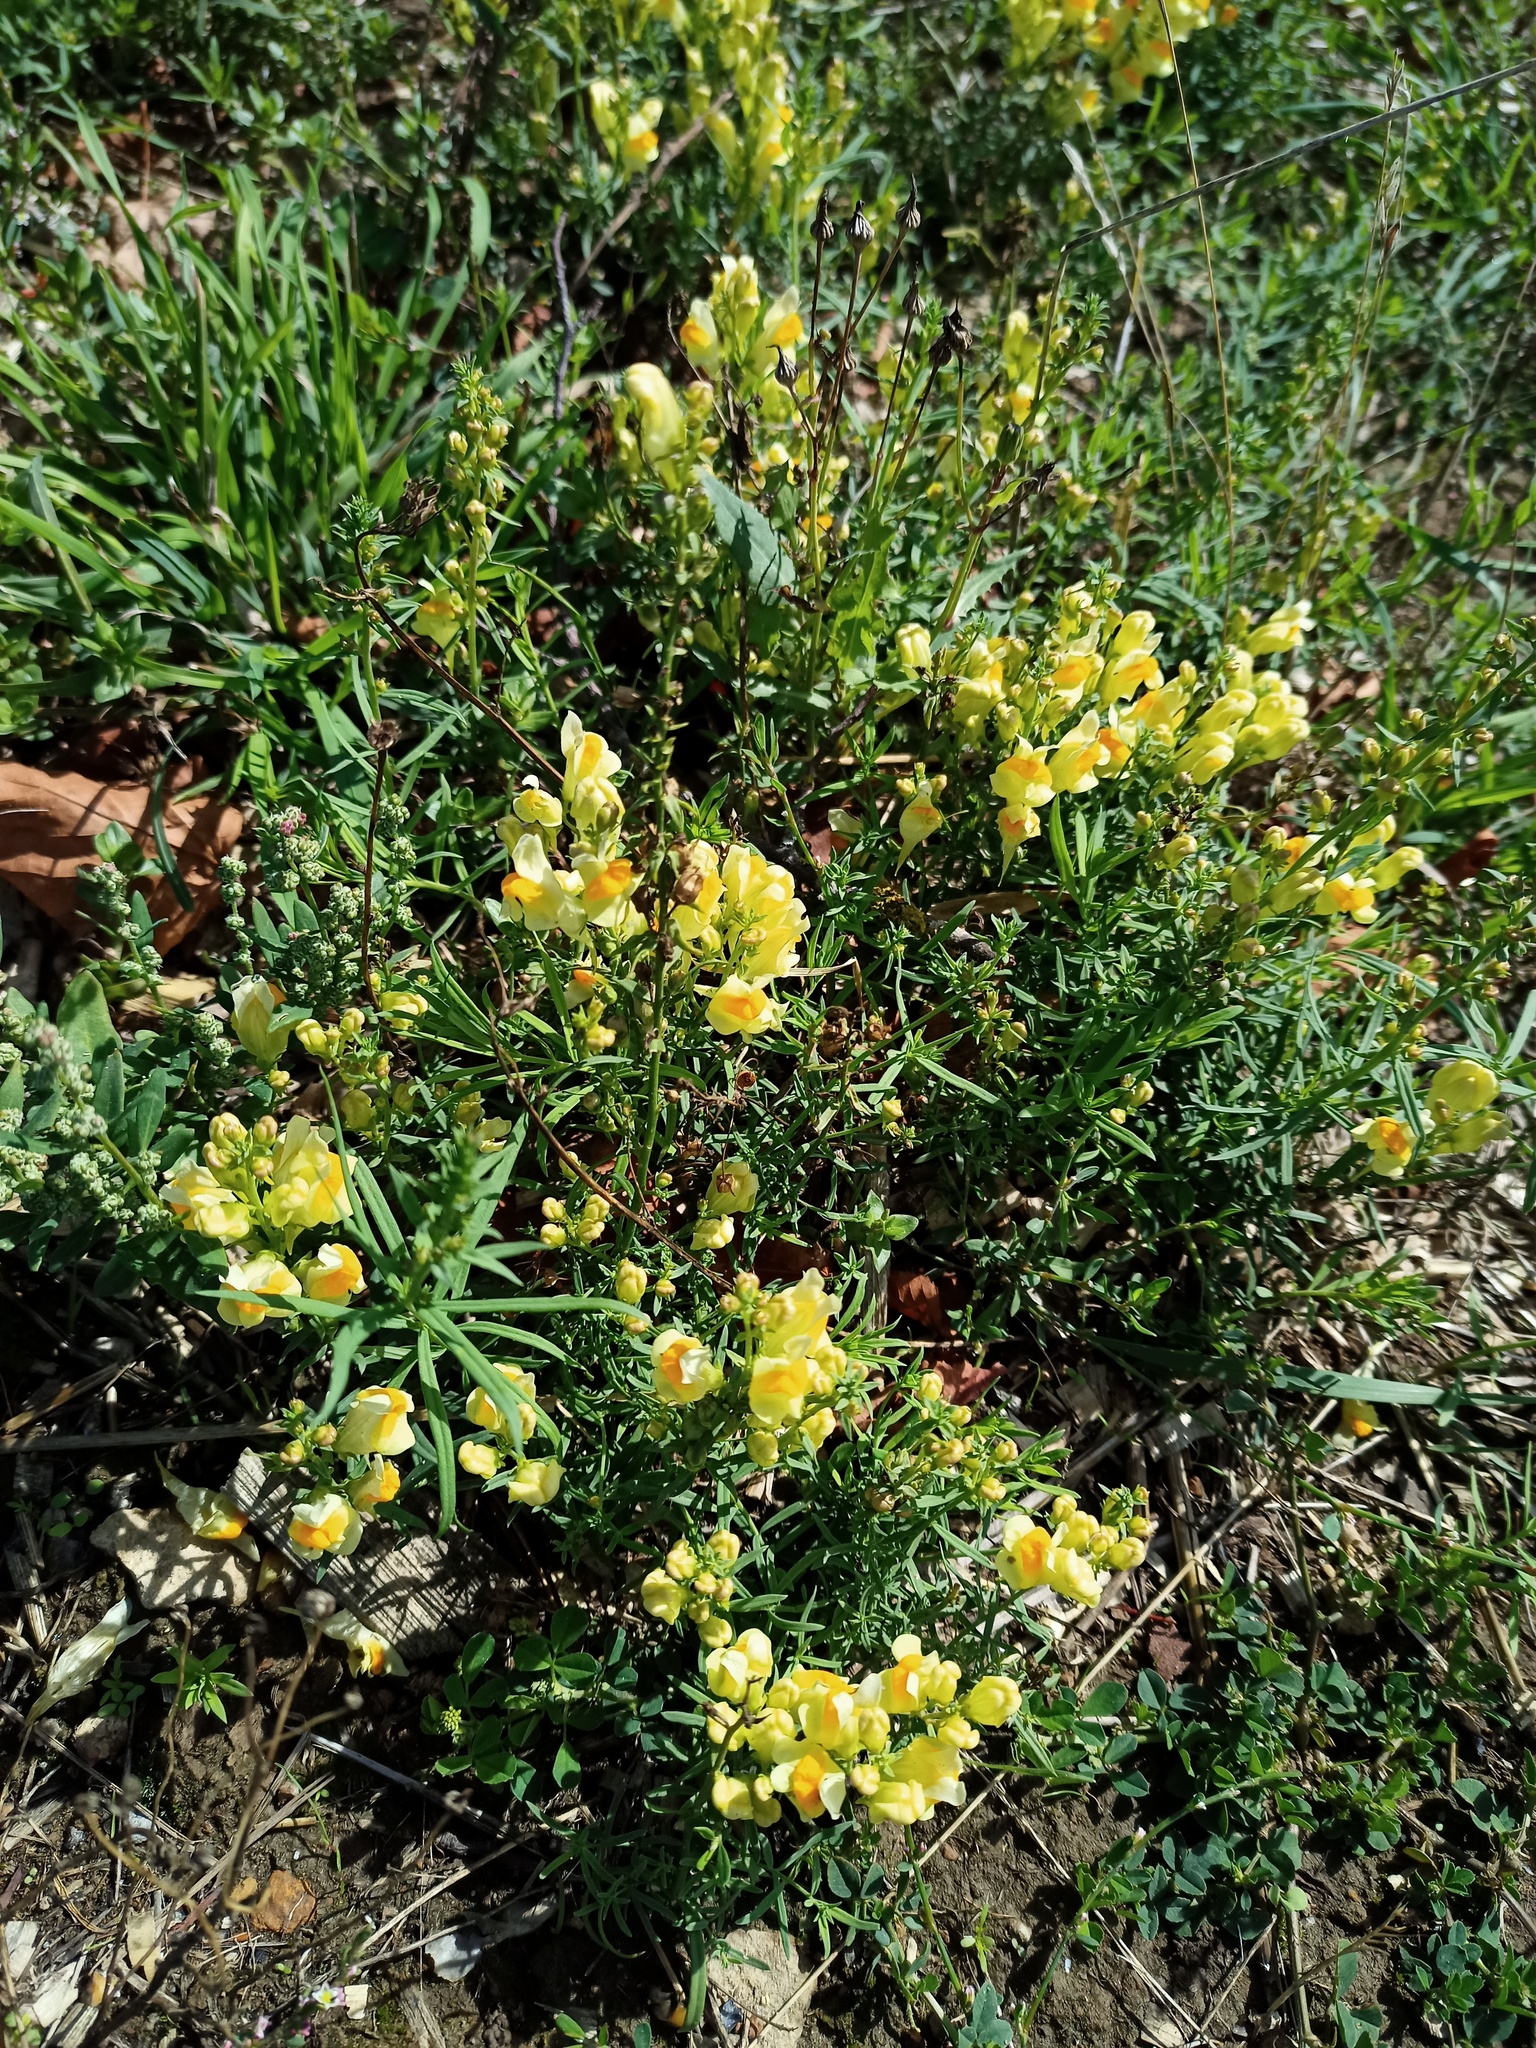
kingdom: Plantae
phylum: Tracheophyta
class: Magnoliopsida
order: Lamiales
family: Plantaginaceae
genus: Linaria
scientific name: Linaria vulgaris
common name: Butter and eggs
